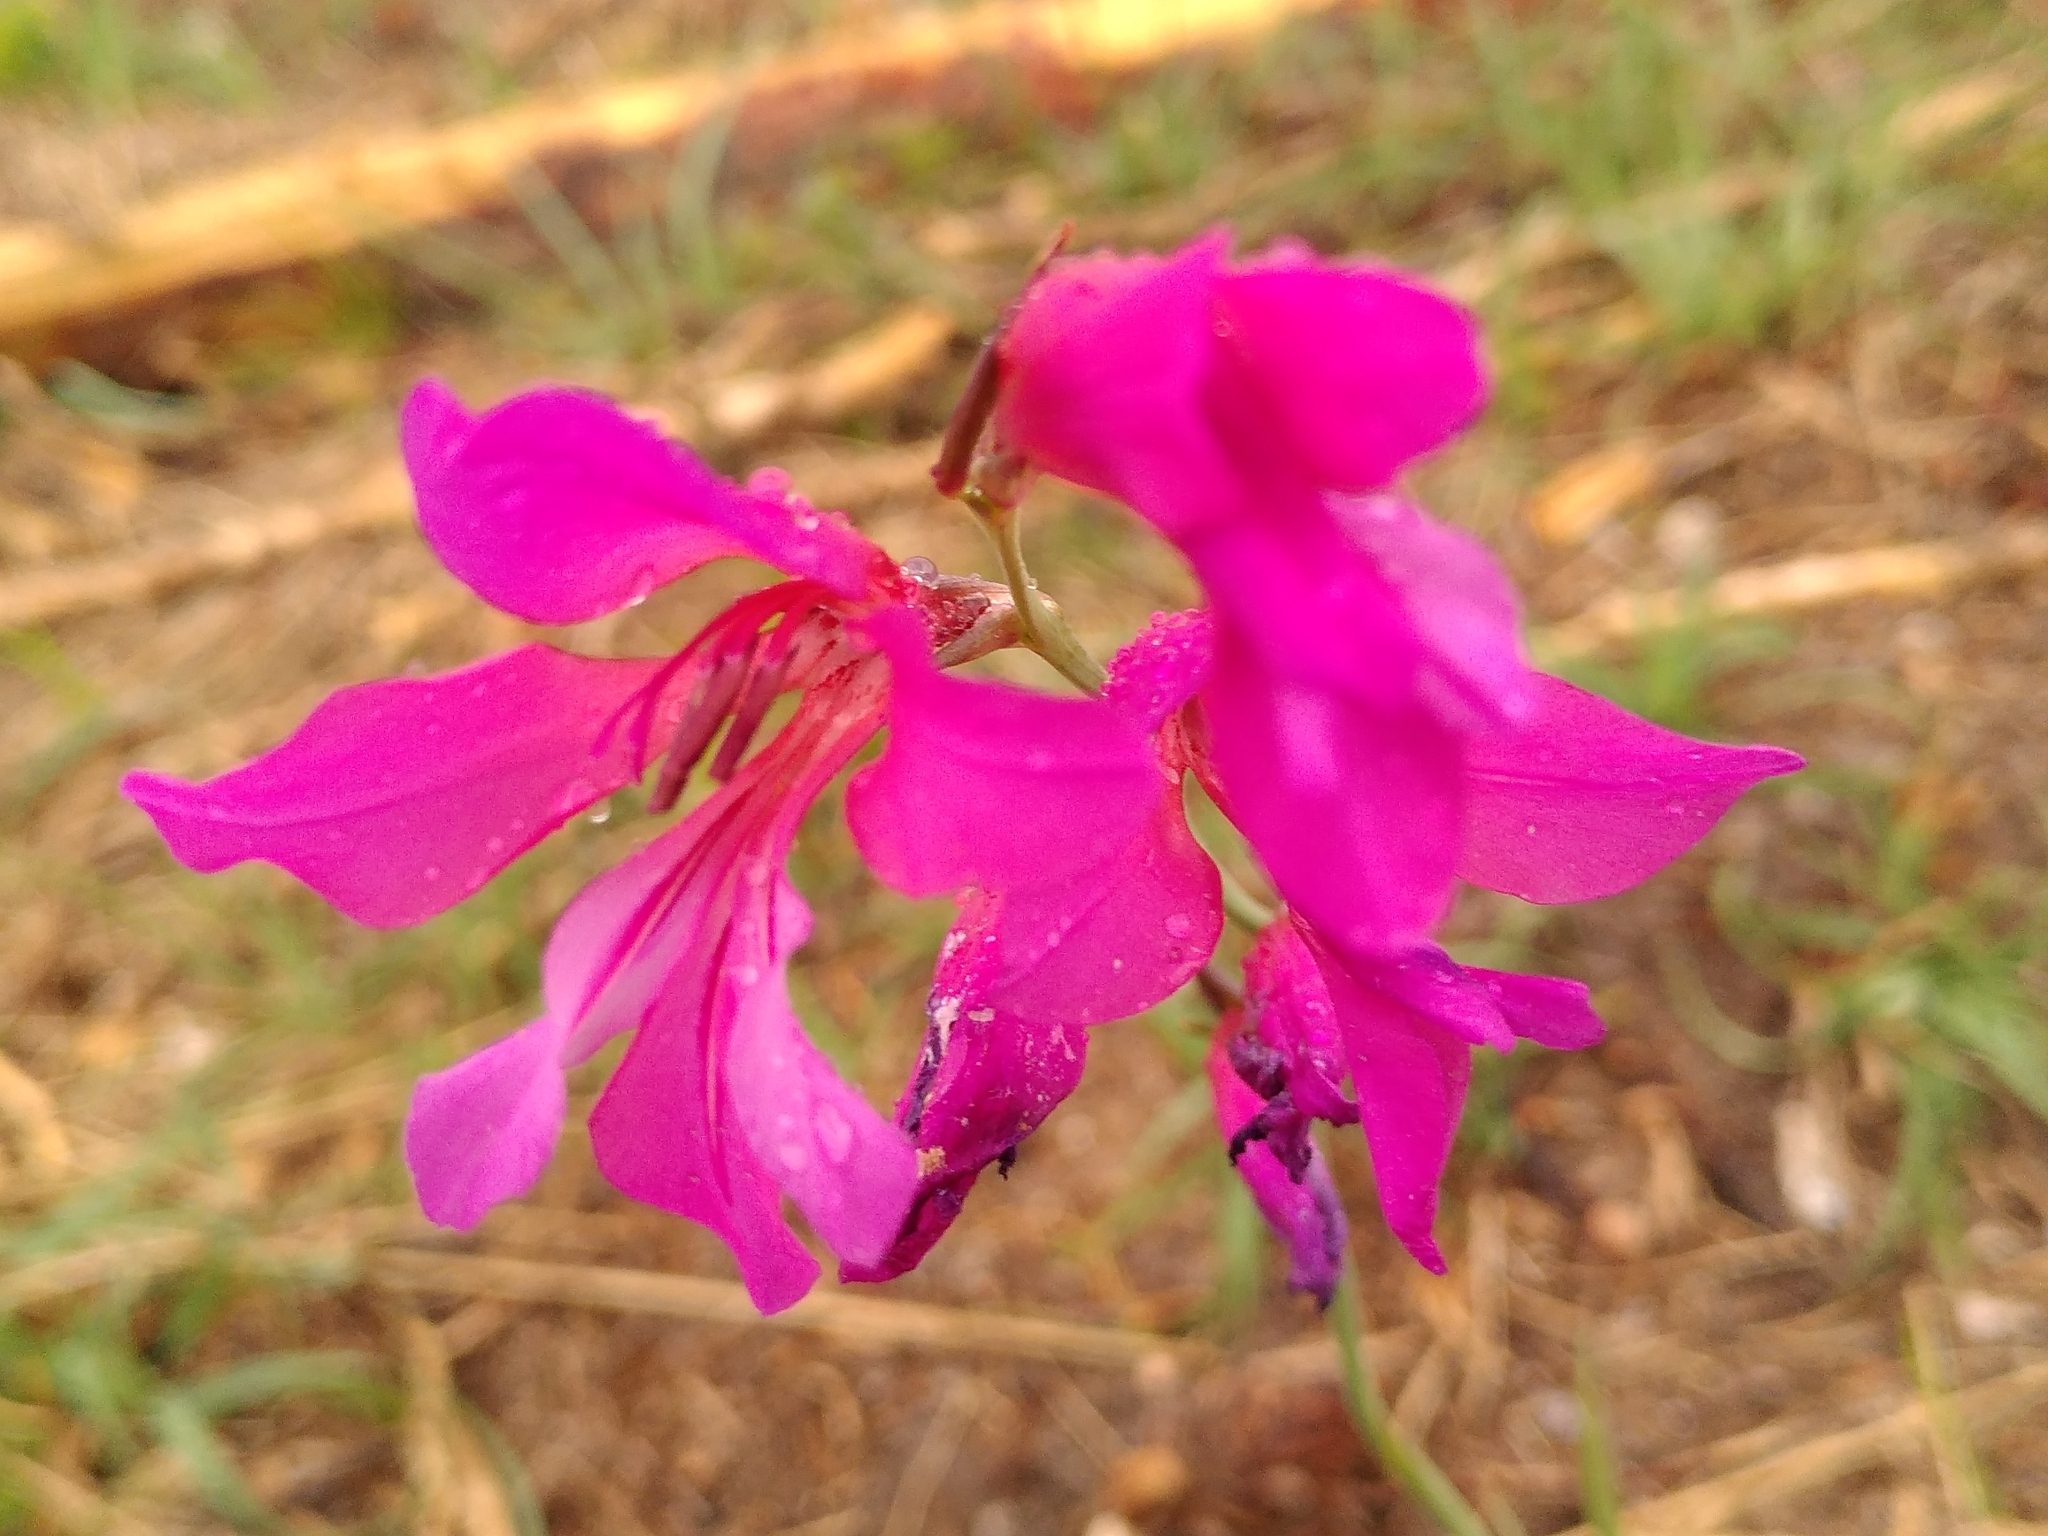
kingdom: Plantae
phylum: Tracheophyta
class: Liliopsida
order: Asparagales
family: Iridaceae
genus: Gladiolus
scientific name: Gladiolus dubius
